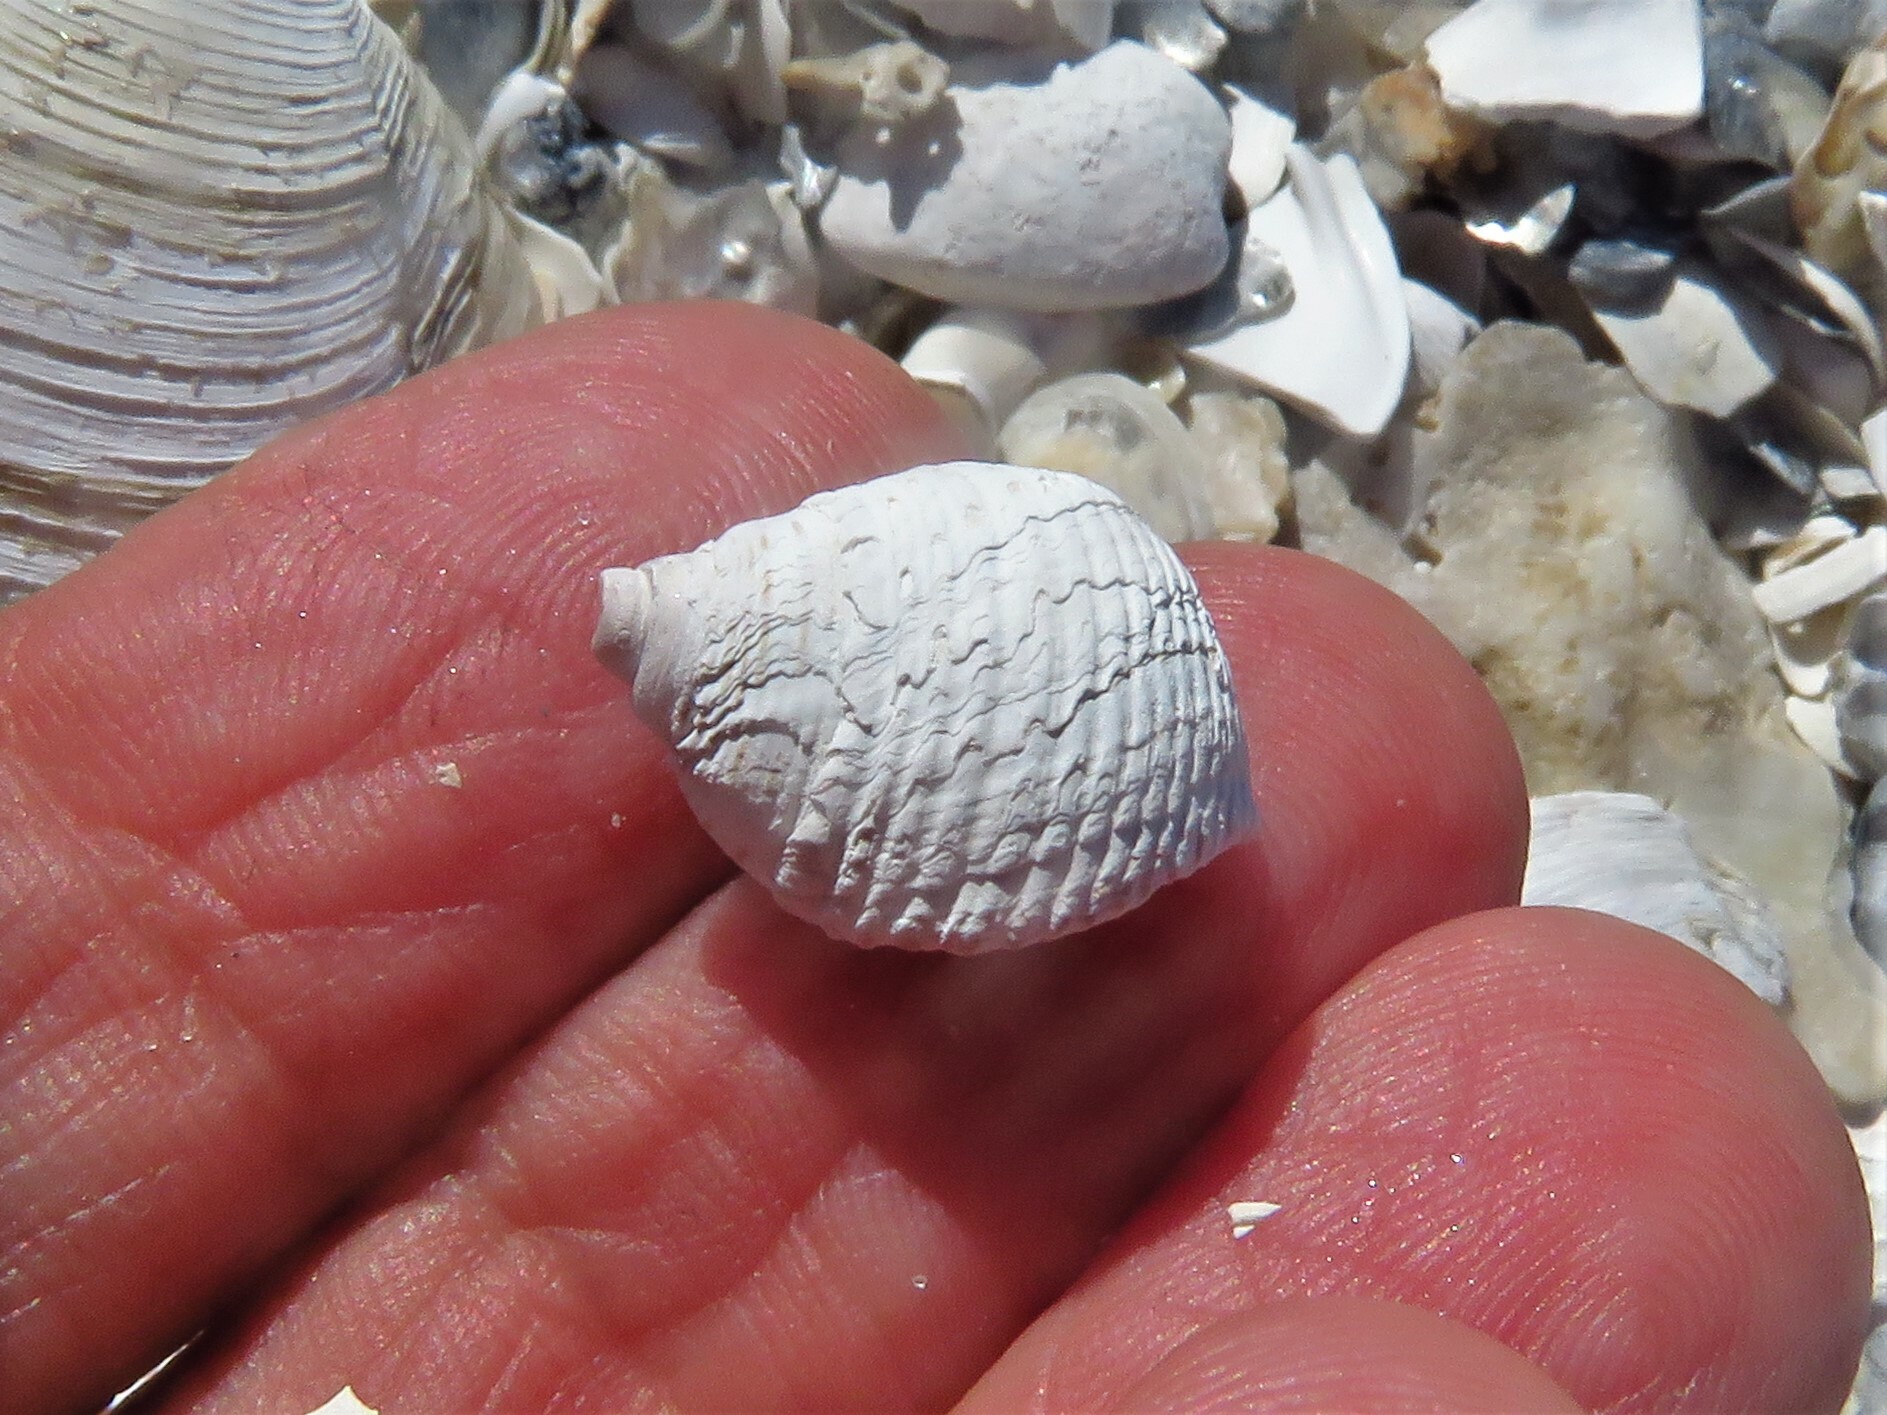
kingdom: Animalia
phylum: Mollusca
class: Gastropoda
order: Littorinimorpha
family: Littorinidae
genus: Littoraria
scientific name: Littoraria irrorata
